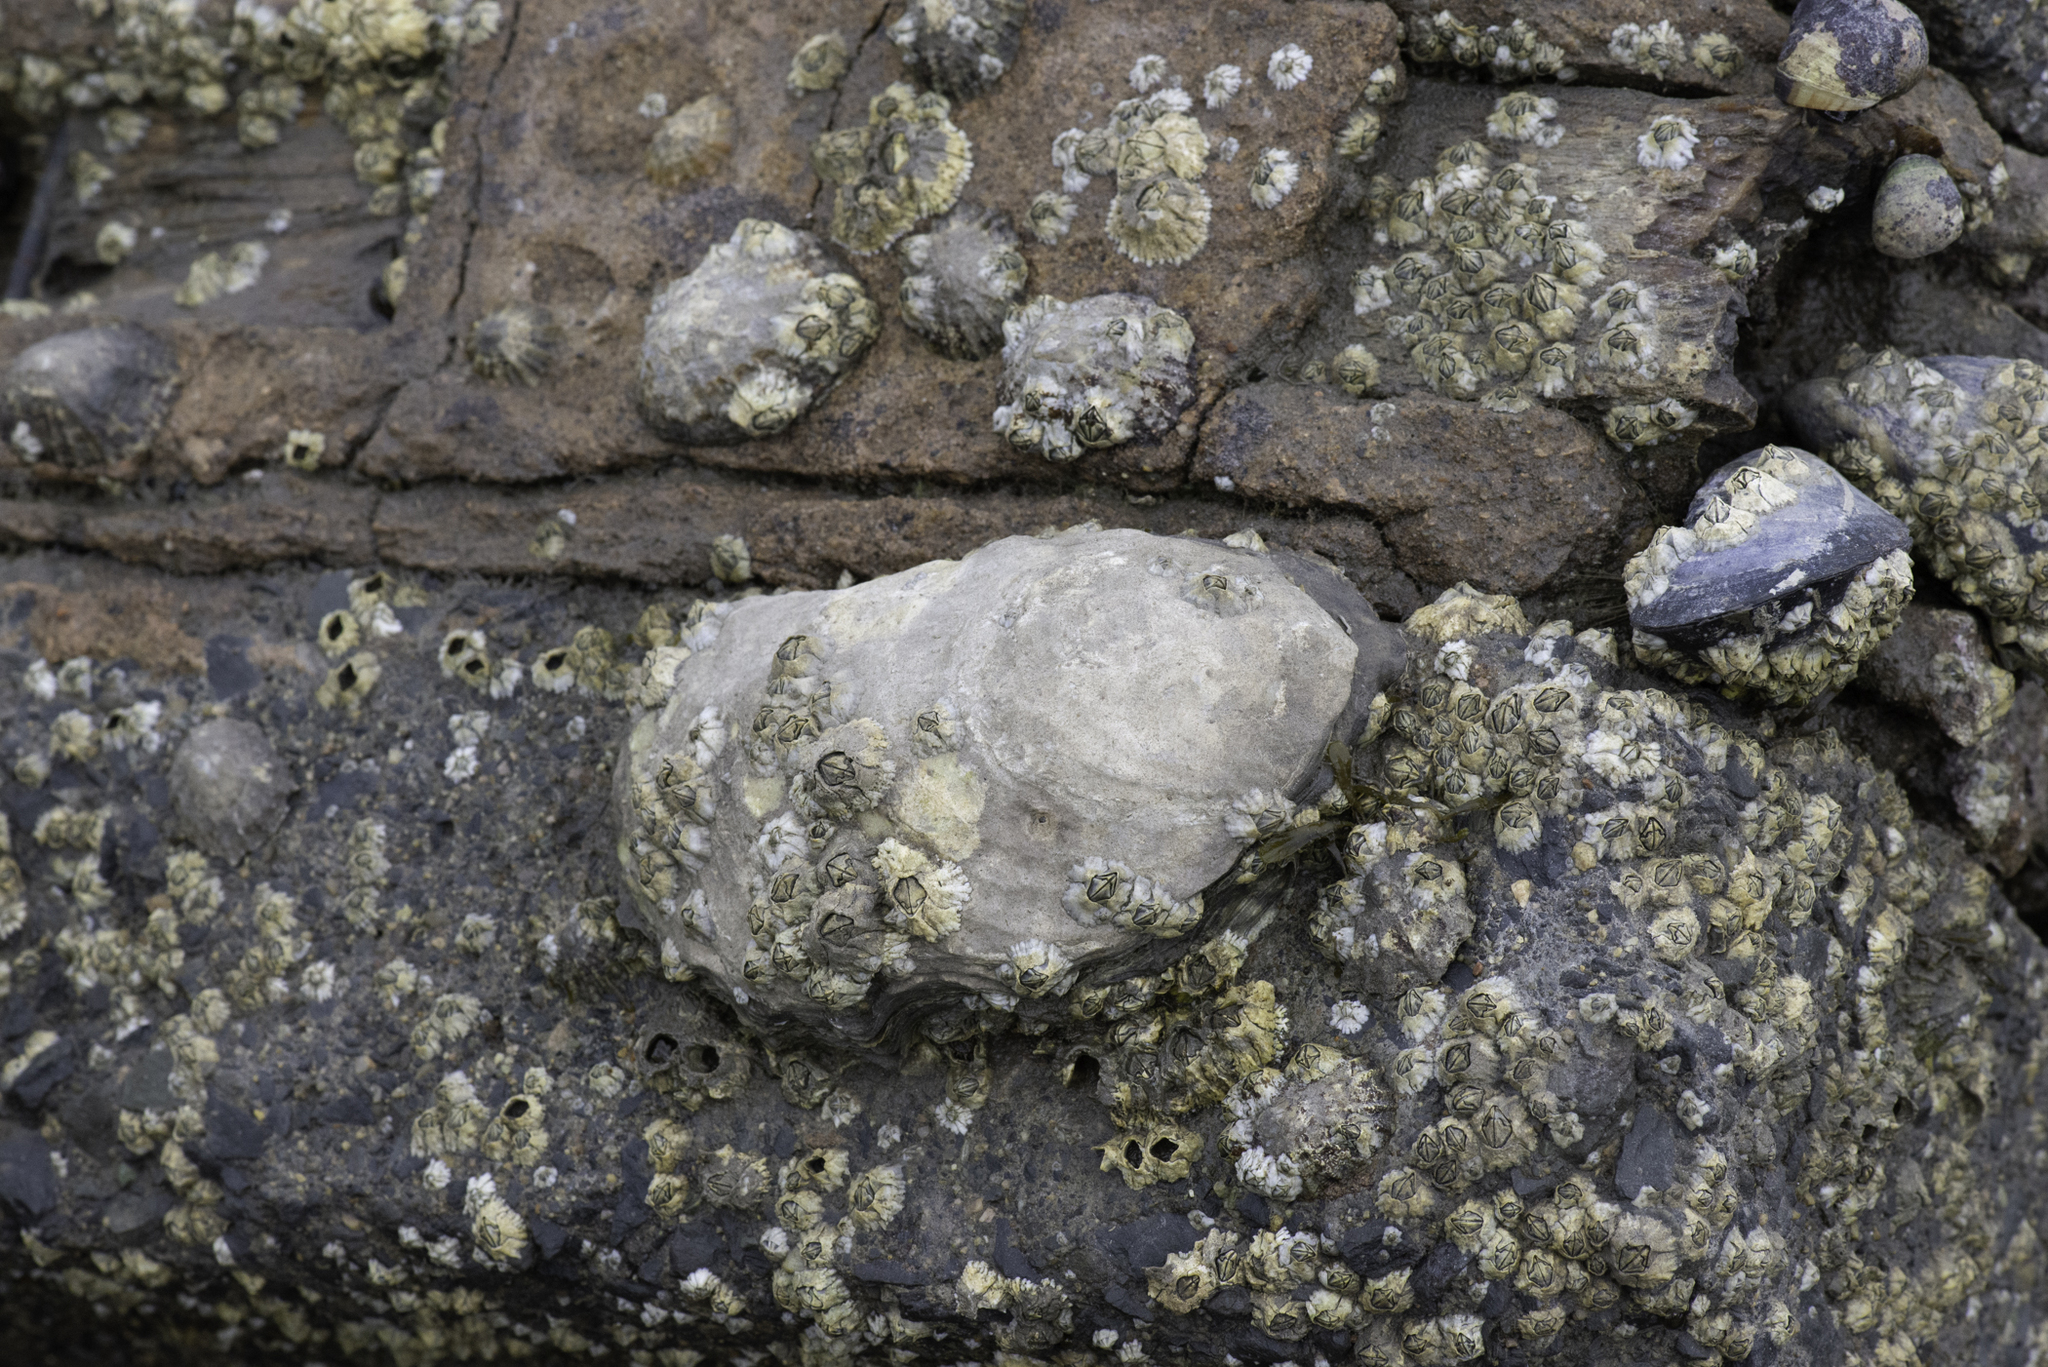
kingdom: Animalia
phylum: Mollusca
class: Bivalvia
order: Ostreida
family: Ostreidae
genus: Magallana
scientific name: Magallana gigas
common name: Pacific oyster
